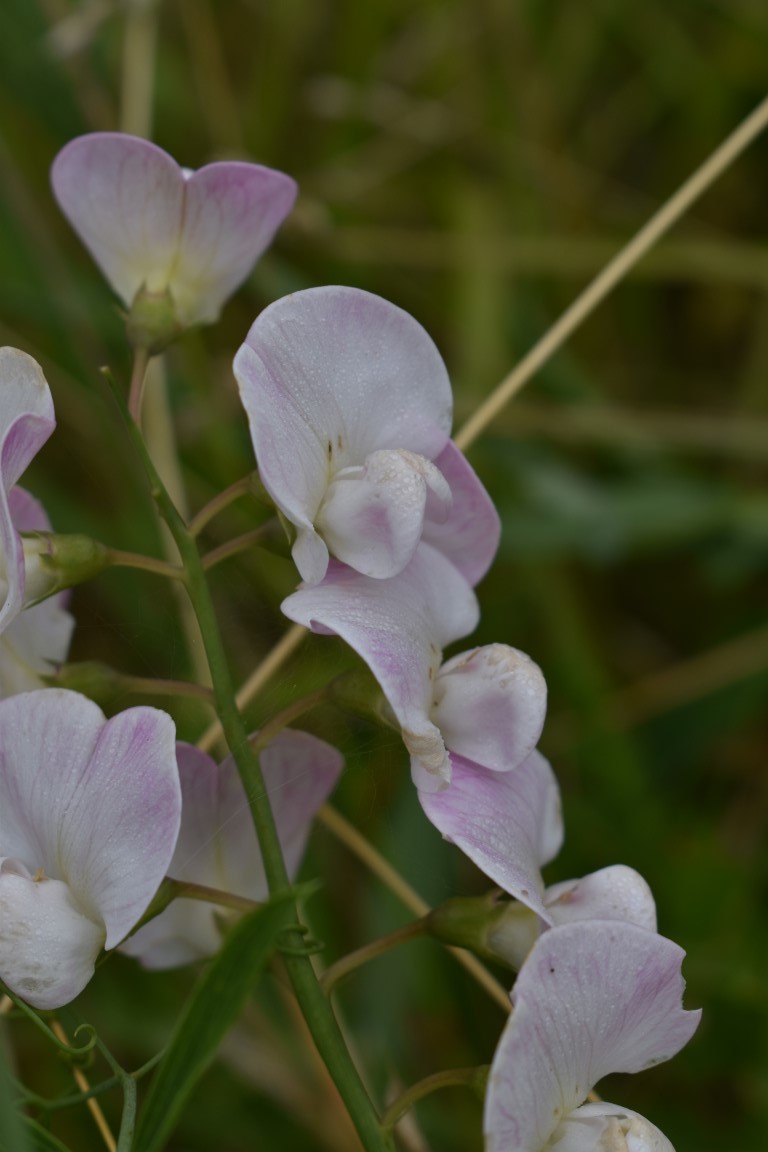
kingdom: Plantae
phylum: Tracheophyta
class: Magnoliopsida
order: Fabales
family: Fabaceae
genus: Lathyrus
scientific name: Lathyrus latifolius
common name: Perennial pea
